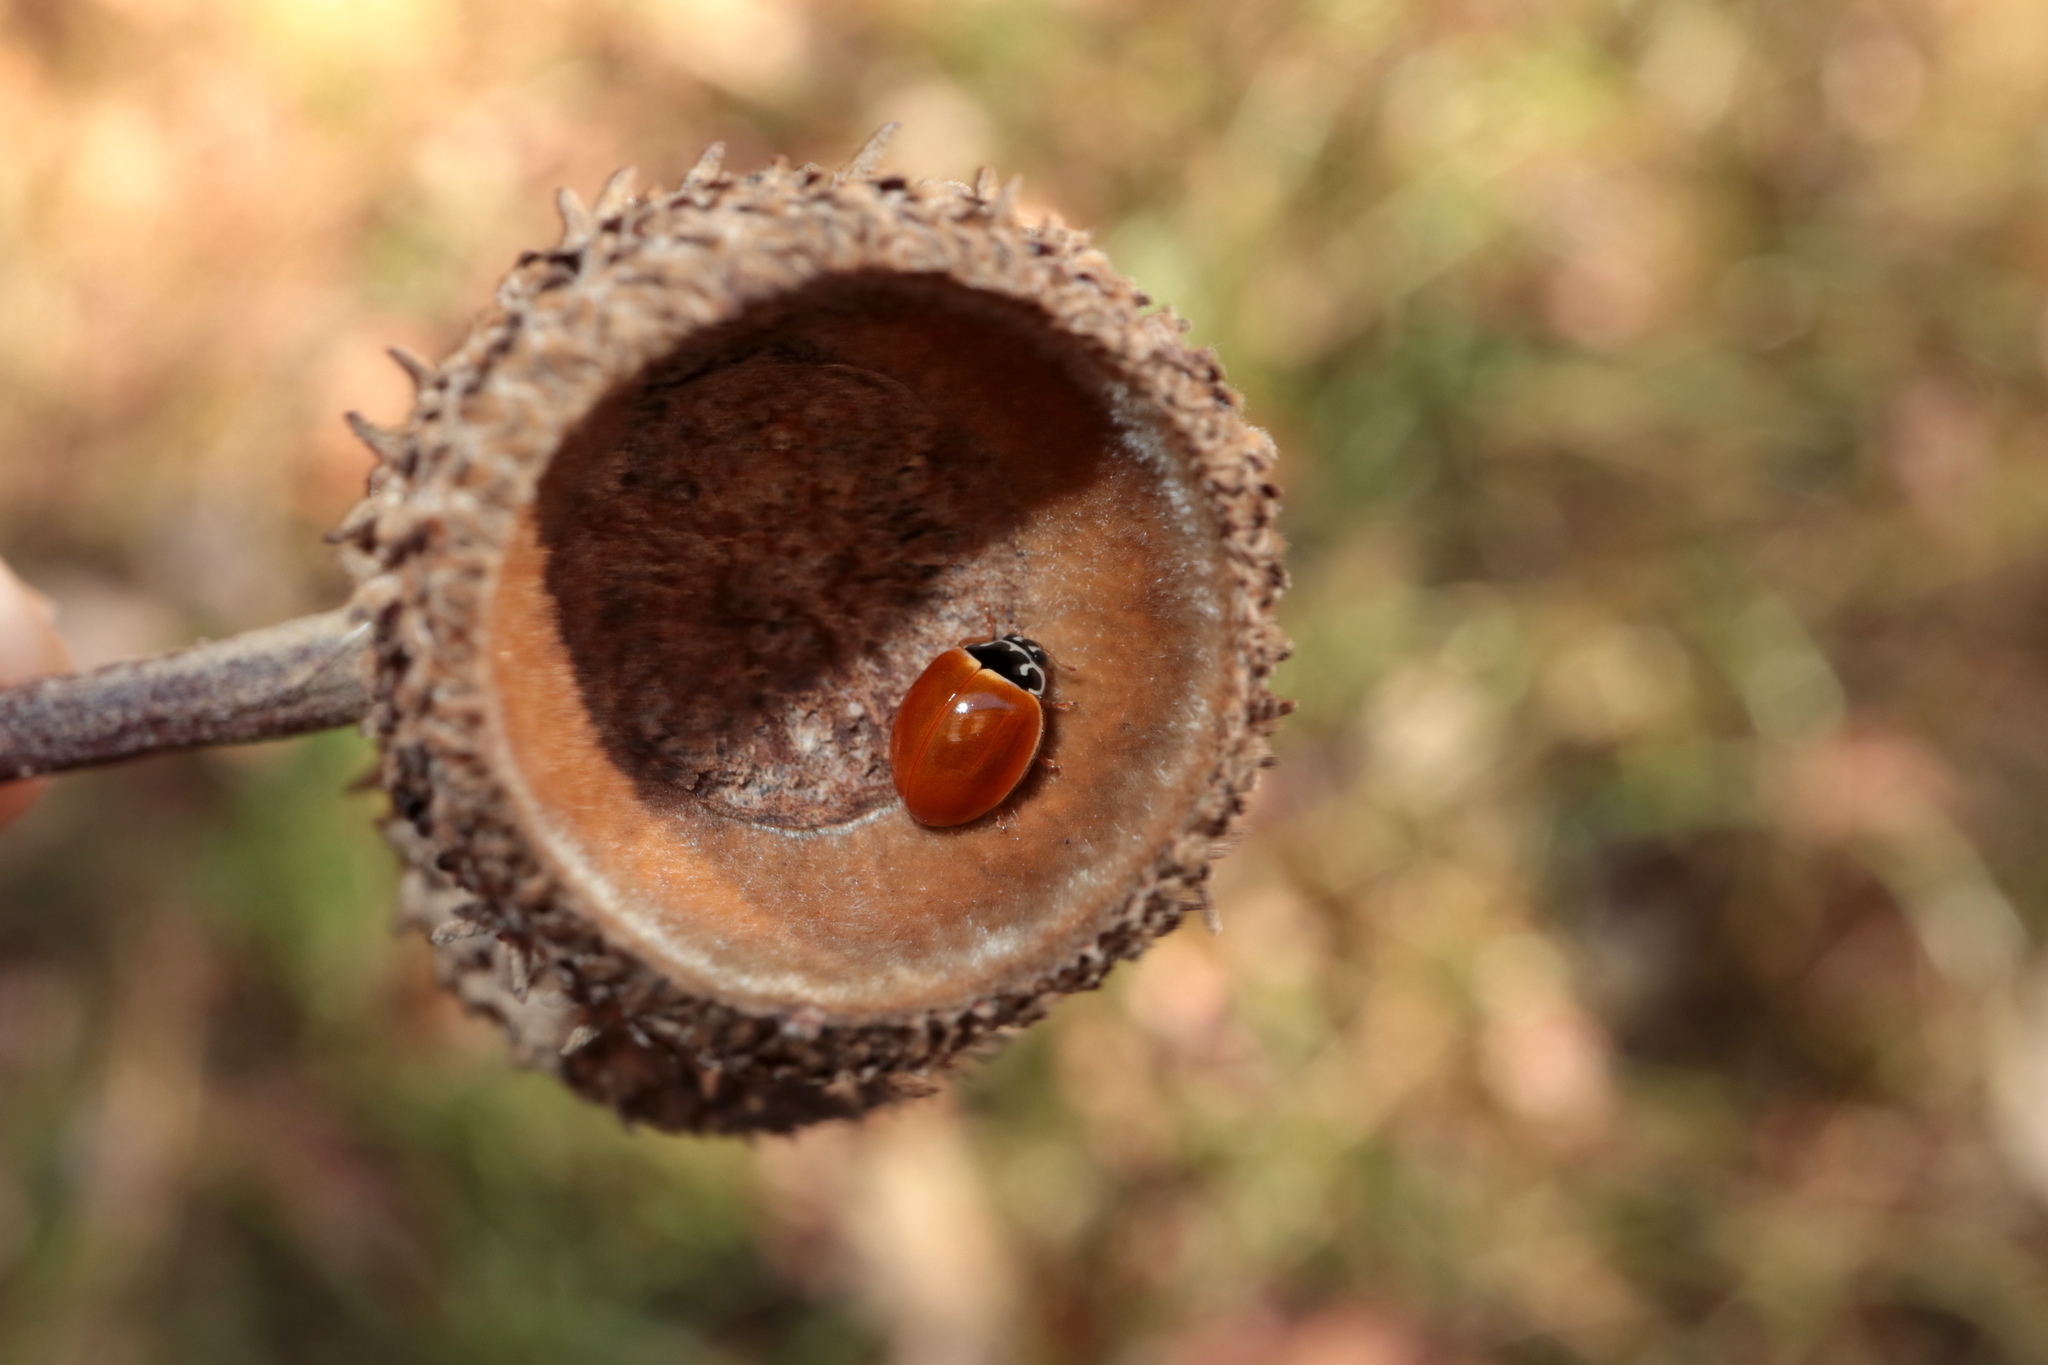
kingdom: Animalia
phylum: Arthropoda
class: Insecta
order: Coleoptera
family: Coccinellidae
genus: Cycloneda
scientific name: Cycloneda munda
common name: Polished lady beetle
